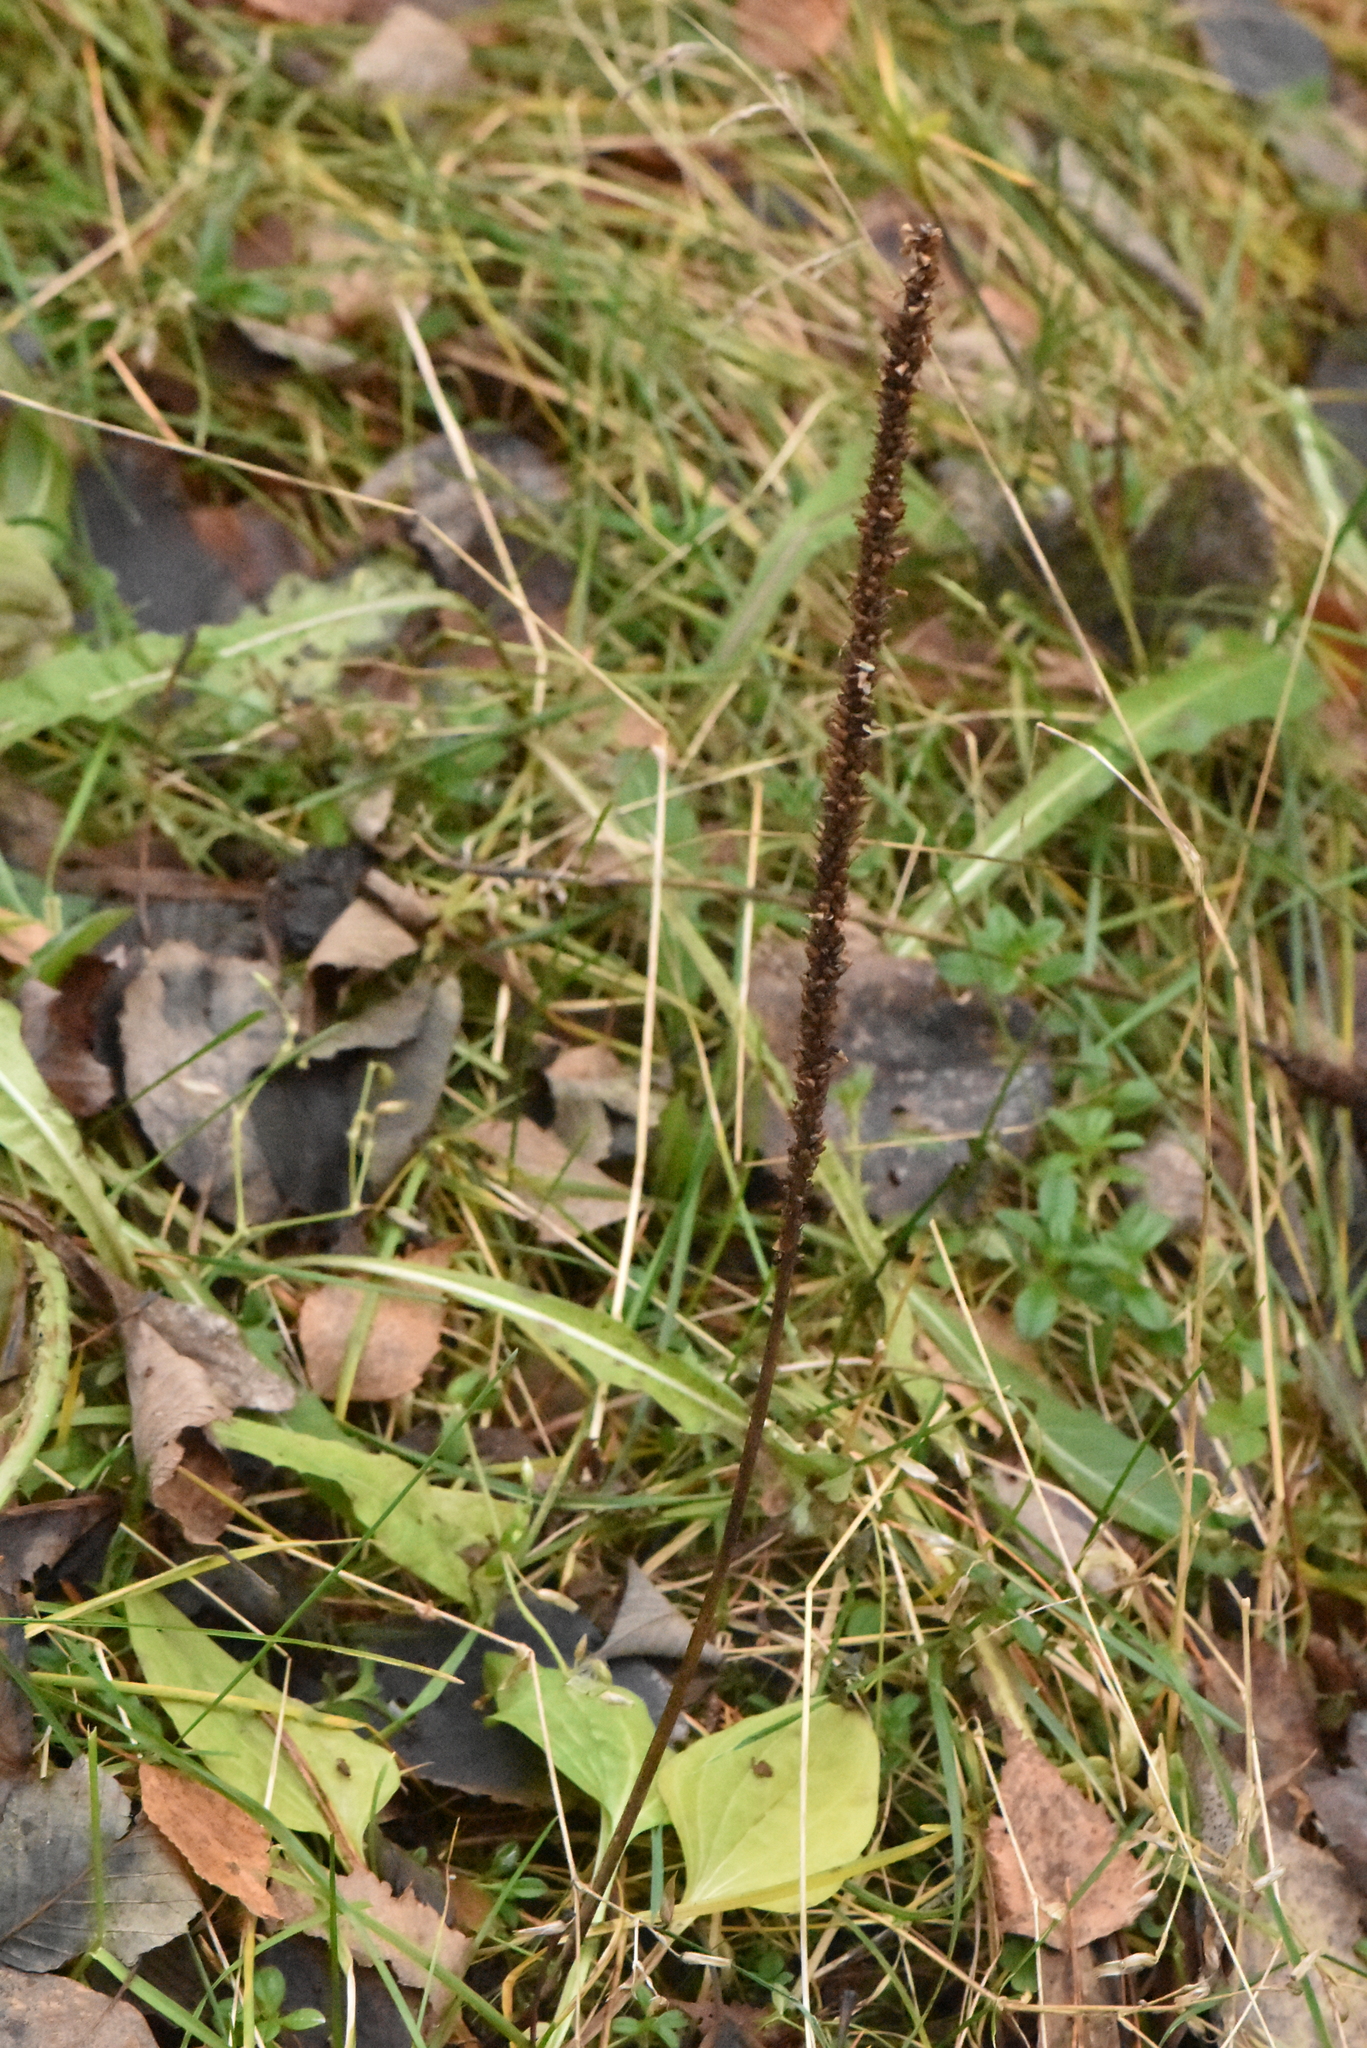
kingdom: Plantae
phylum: Tracheophyta
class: Magnoliopsida
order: Lamiales
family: Plantaginaceae
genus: Plantago
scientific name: Plantago major
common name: Common plantain
